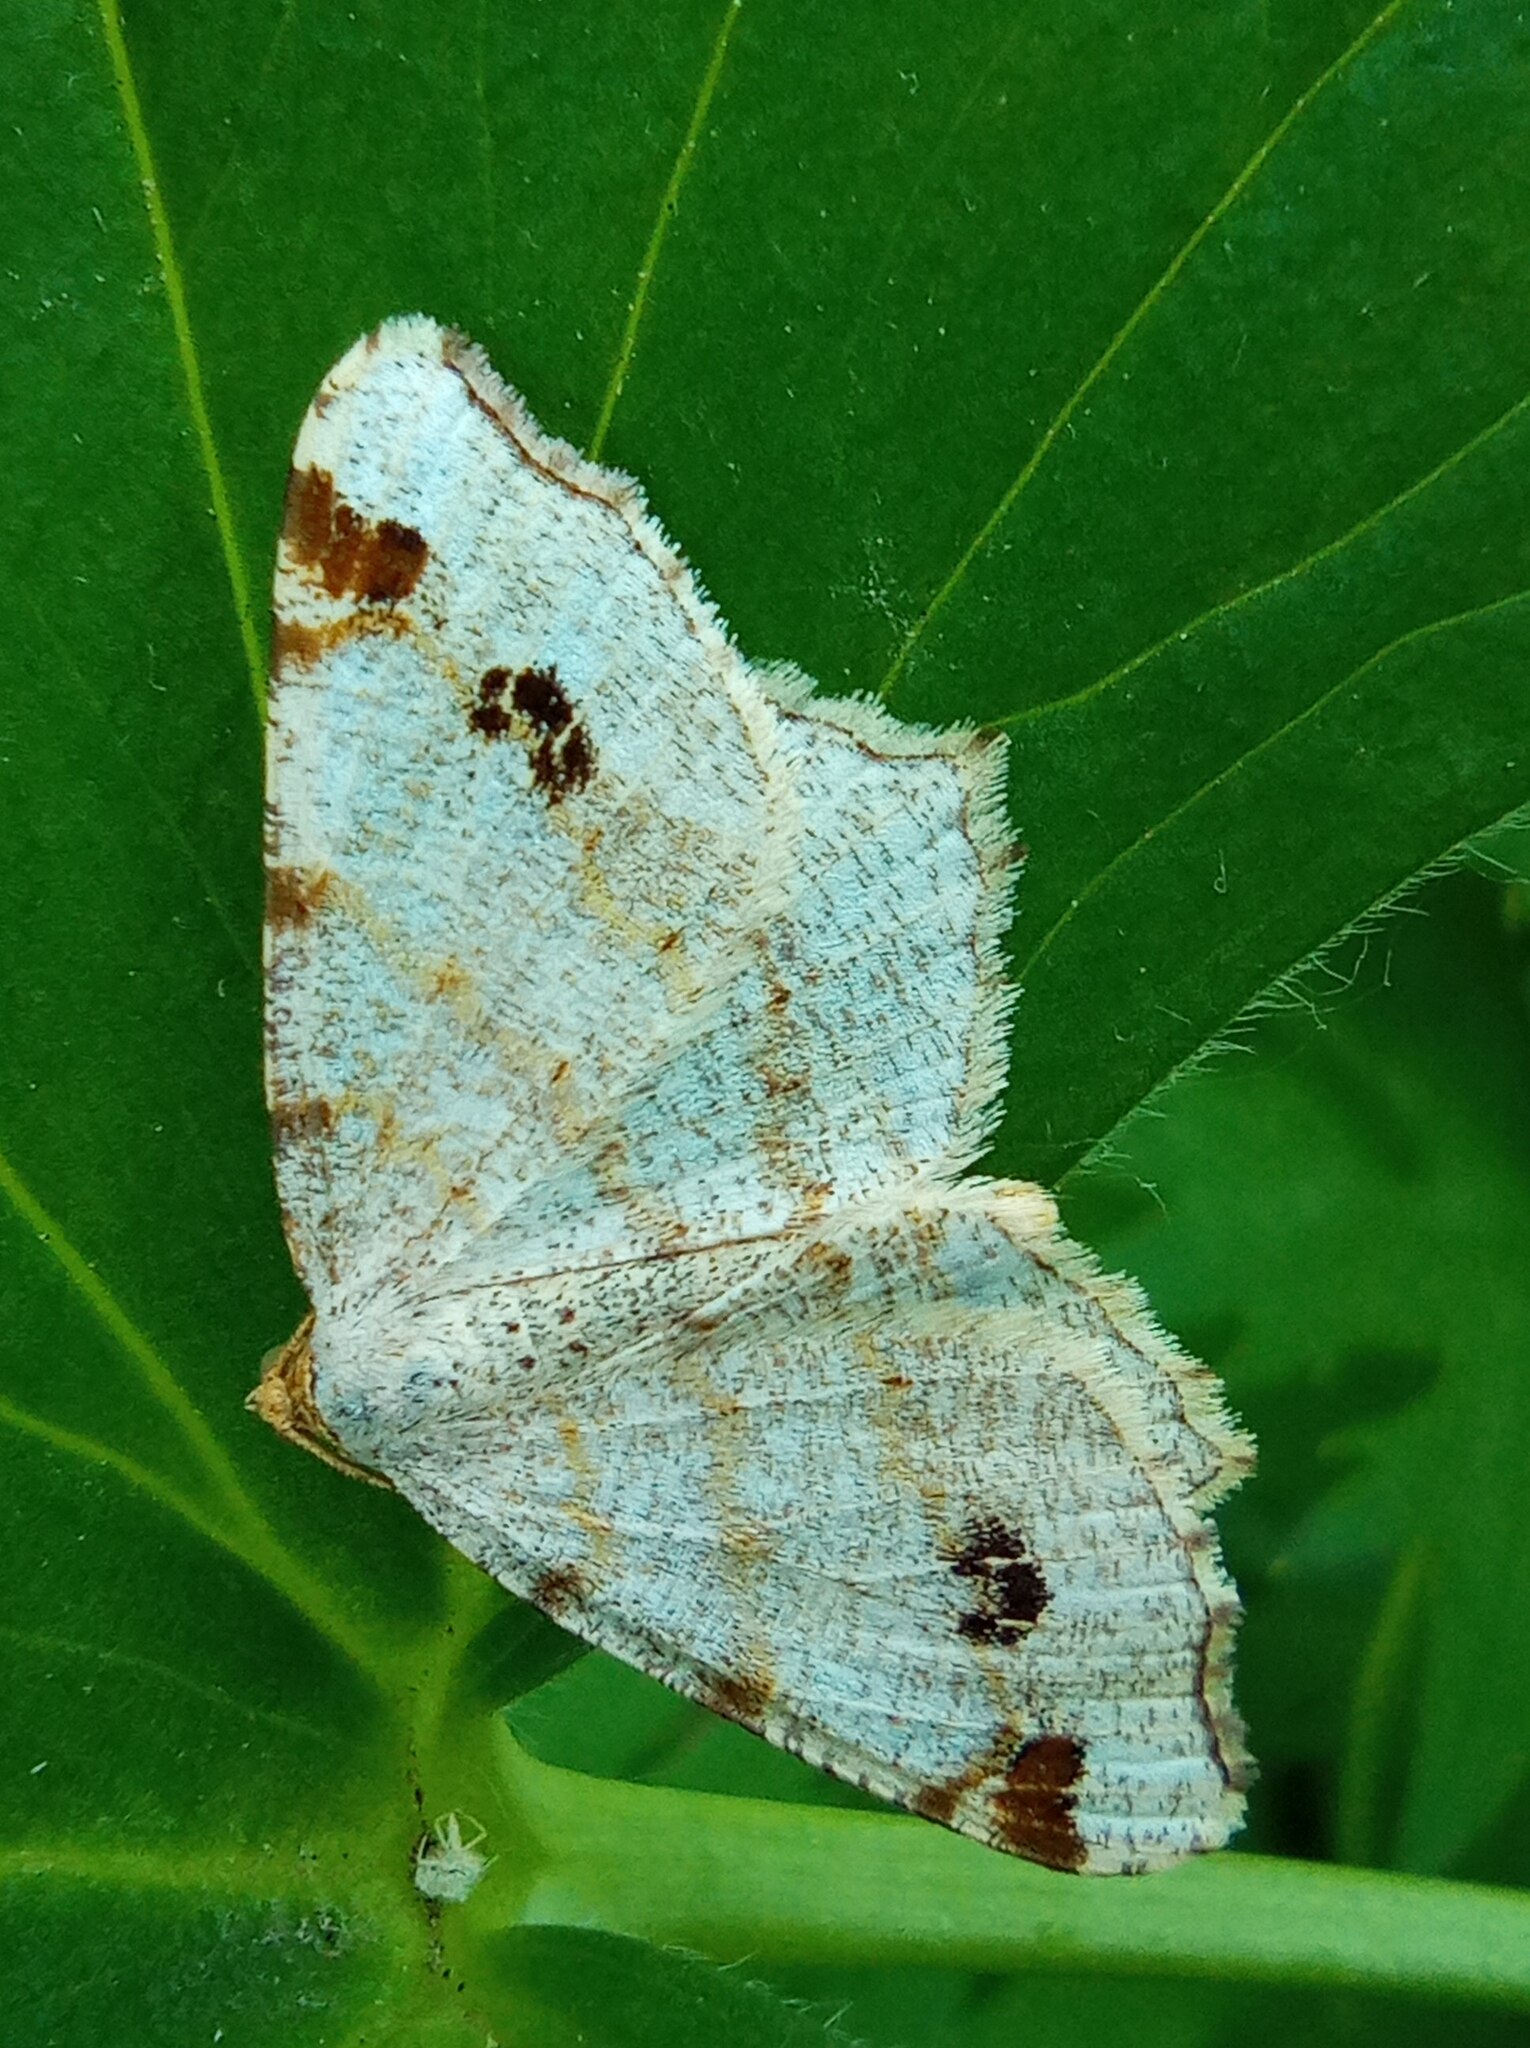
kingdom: Animalia
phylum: Arthropoda
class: Insecta
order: Lepidoptera
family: Geometridae
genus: Macaria
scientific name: Macaria notata
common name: Peacock moth
